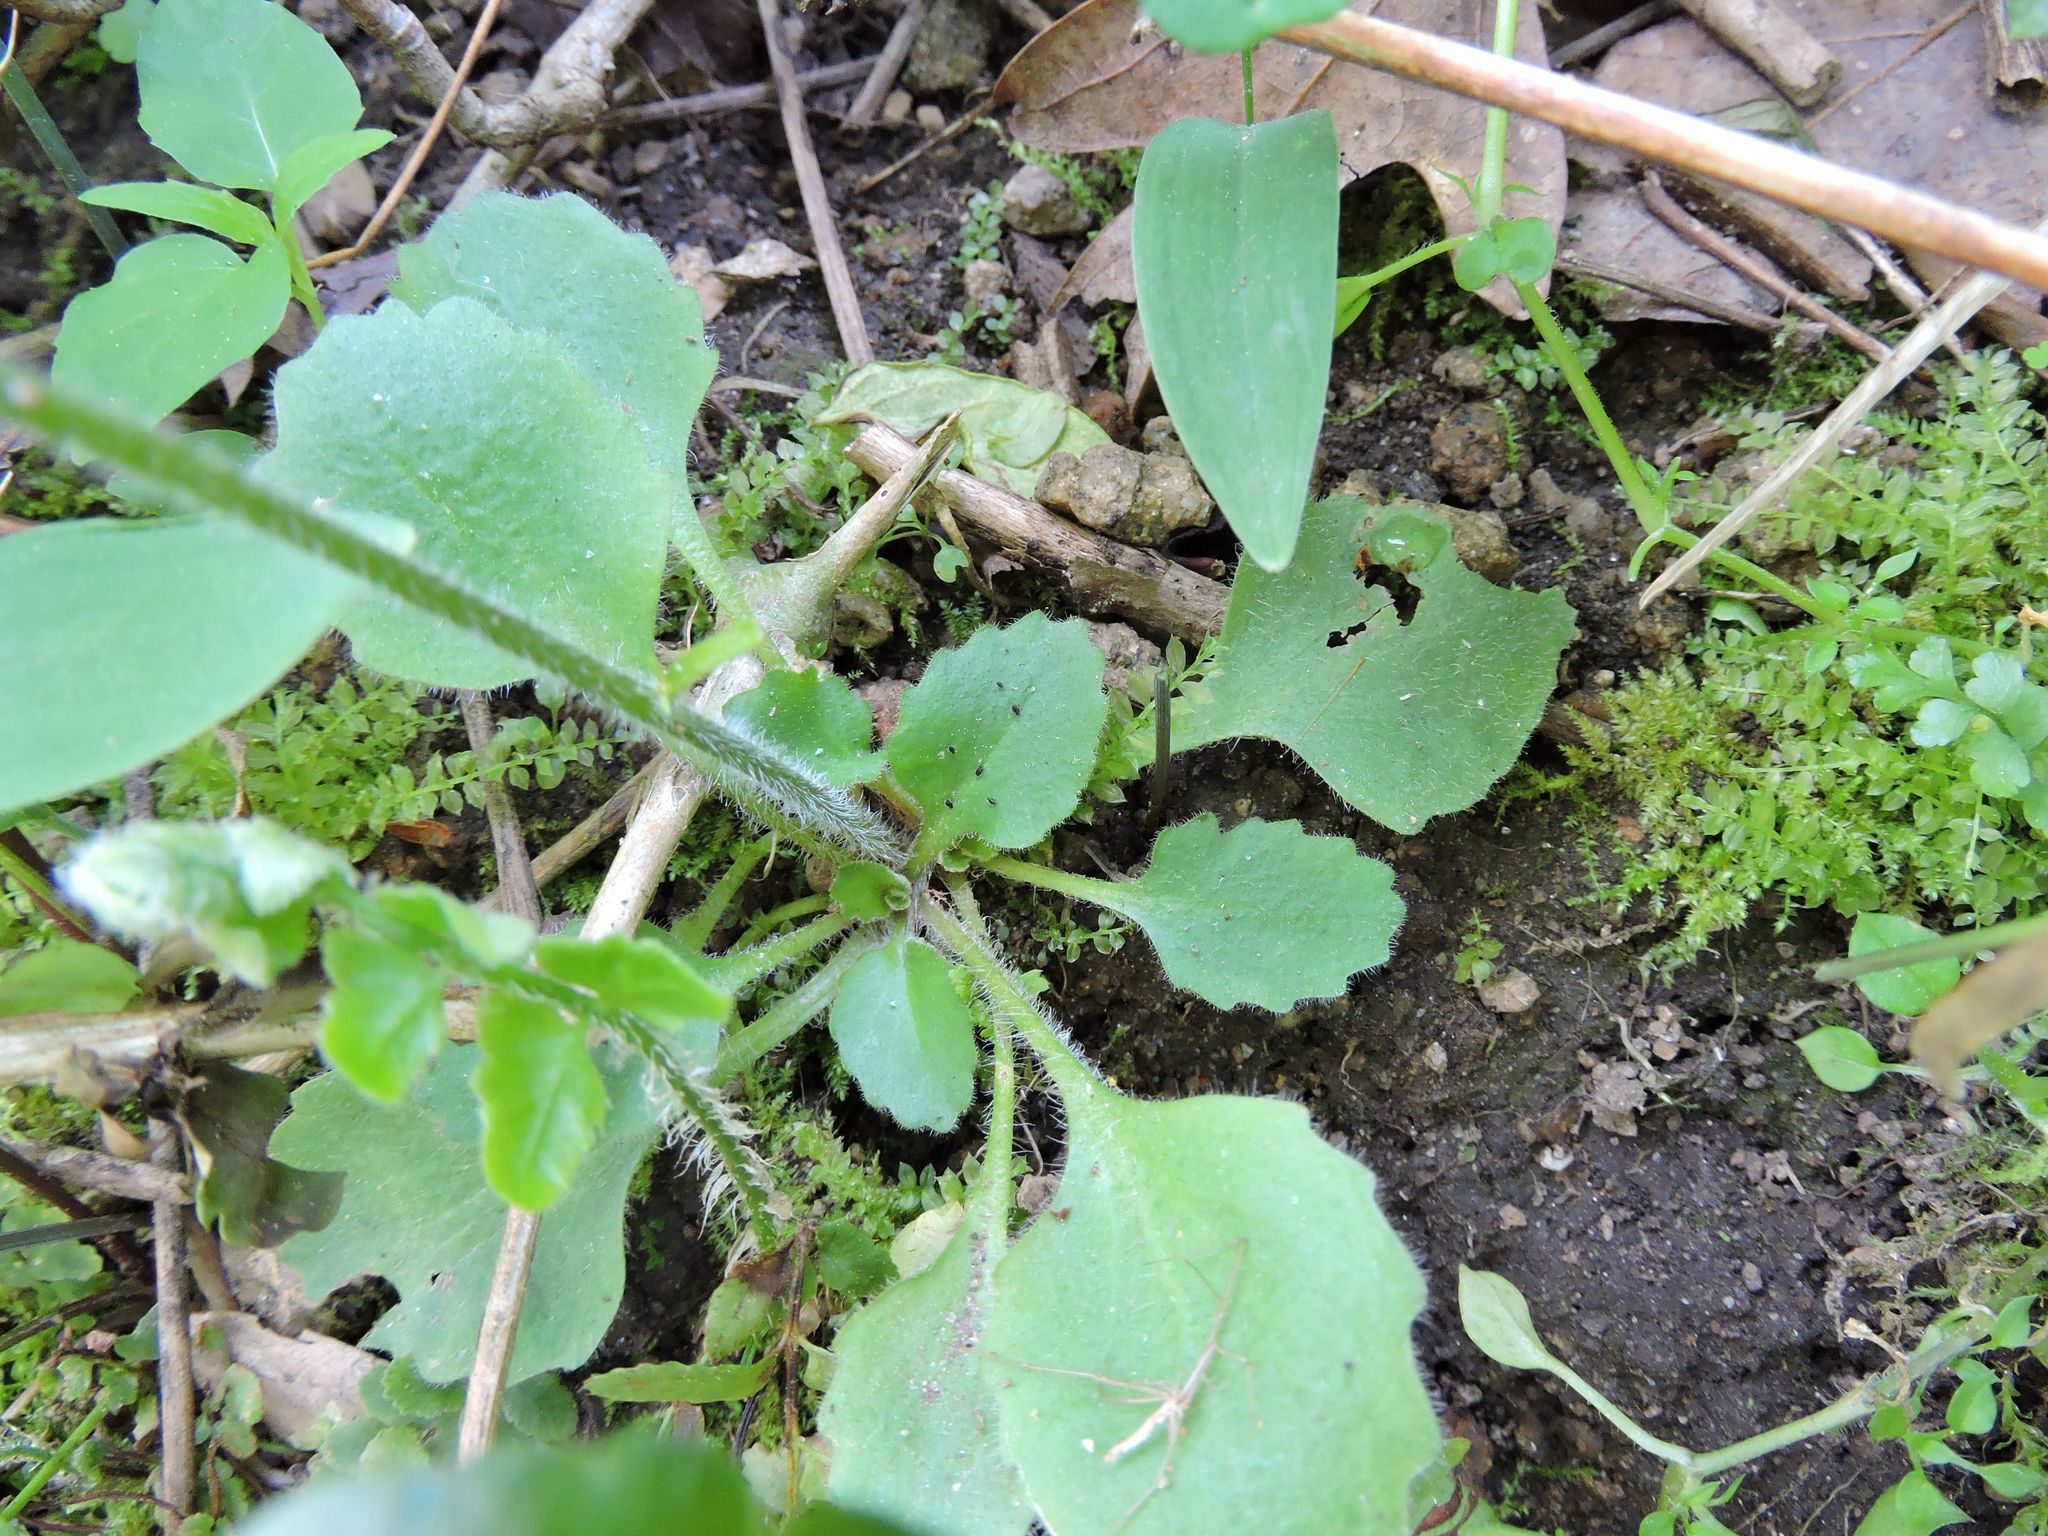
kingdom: Plantae
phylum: Tracheophyta
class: Magnoliopsida
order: Saxifragales
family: Saxifragaceae
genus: Micranthes
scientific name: Micranthes virginiensis
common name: Early saxifrage
